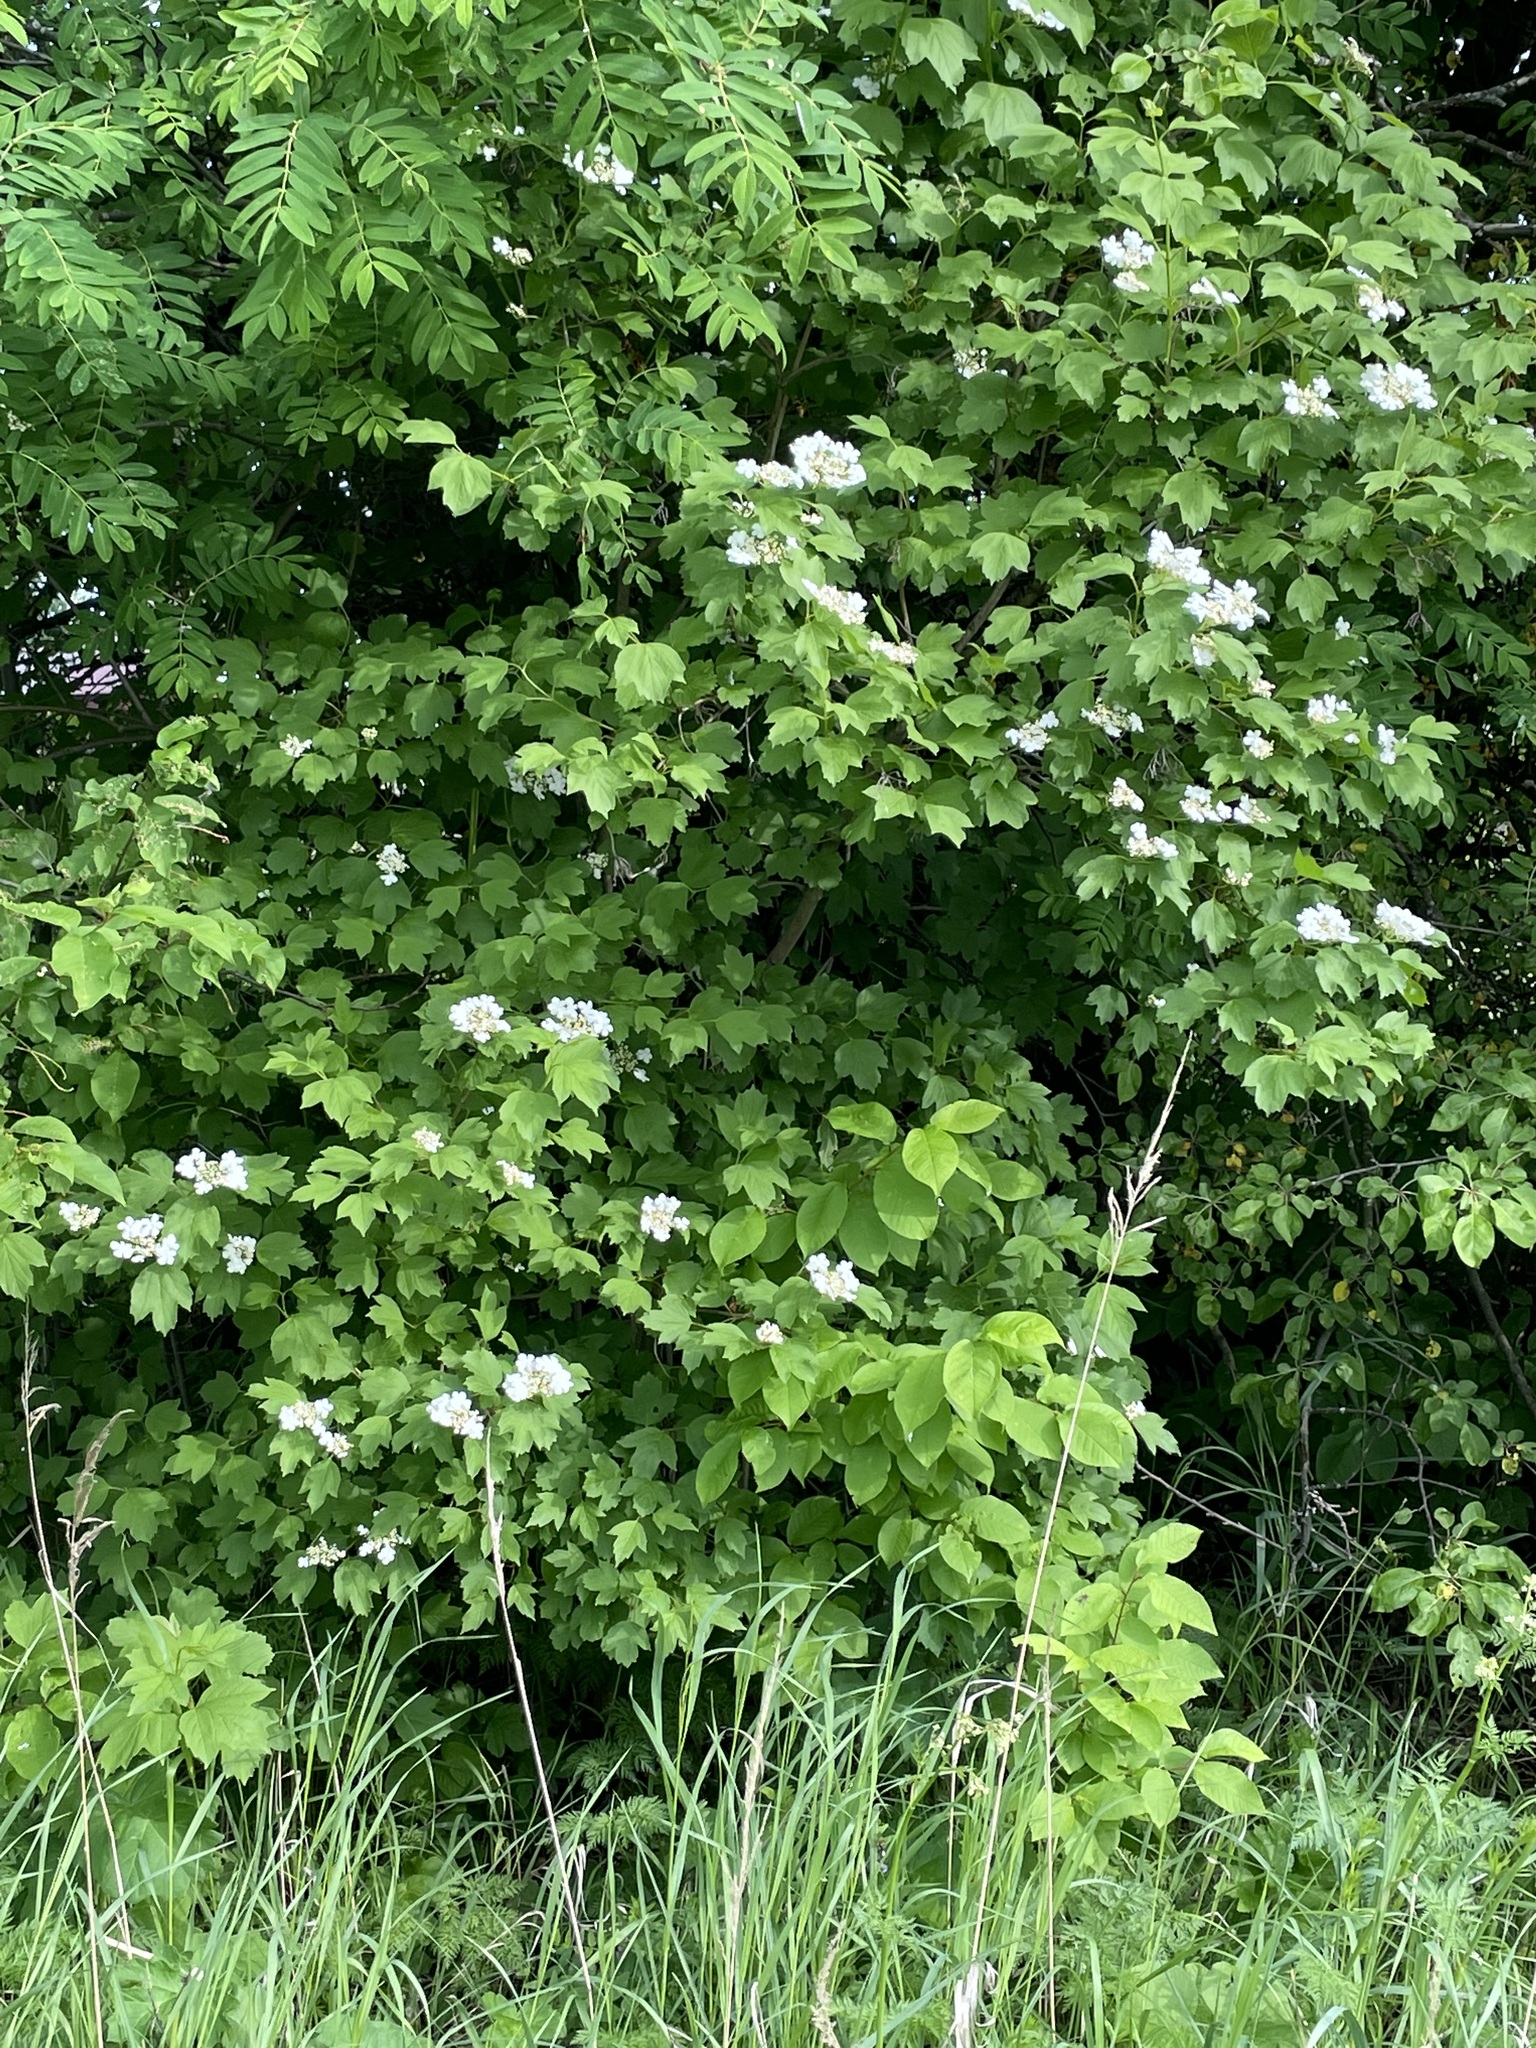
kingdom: Plantae
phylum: Tracheophyta
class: Magnoliopsida
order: Dipsacales
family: Viburnaceae
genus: Viburnum
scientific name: Viburnum opulus
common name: Guelder-rose
